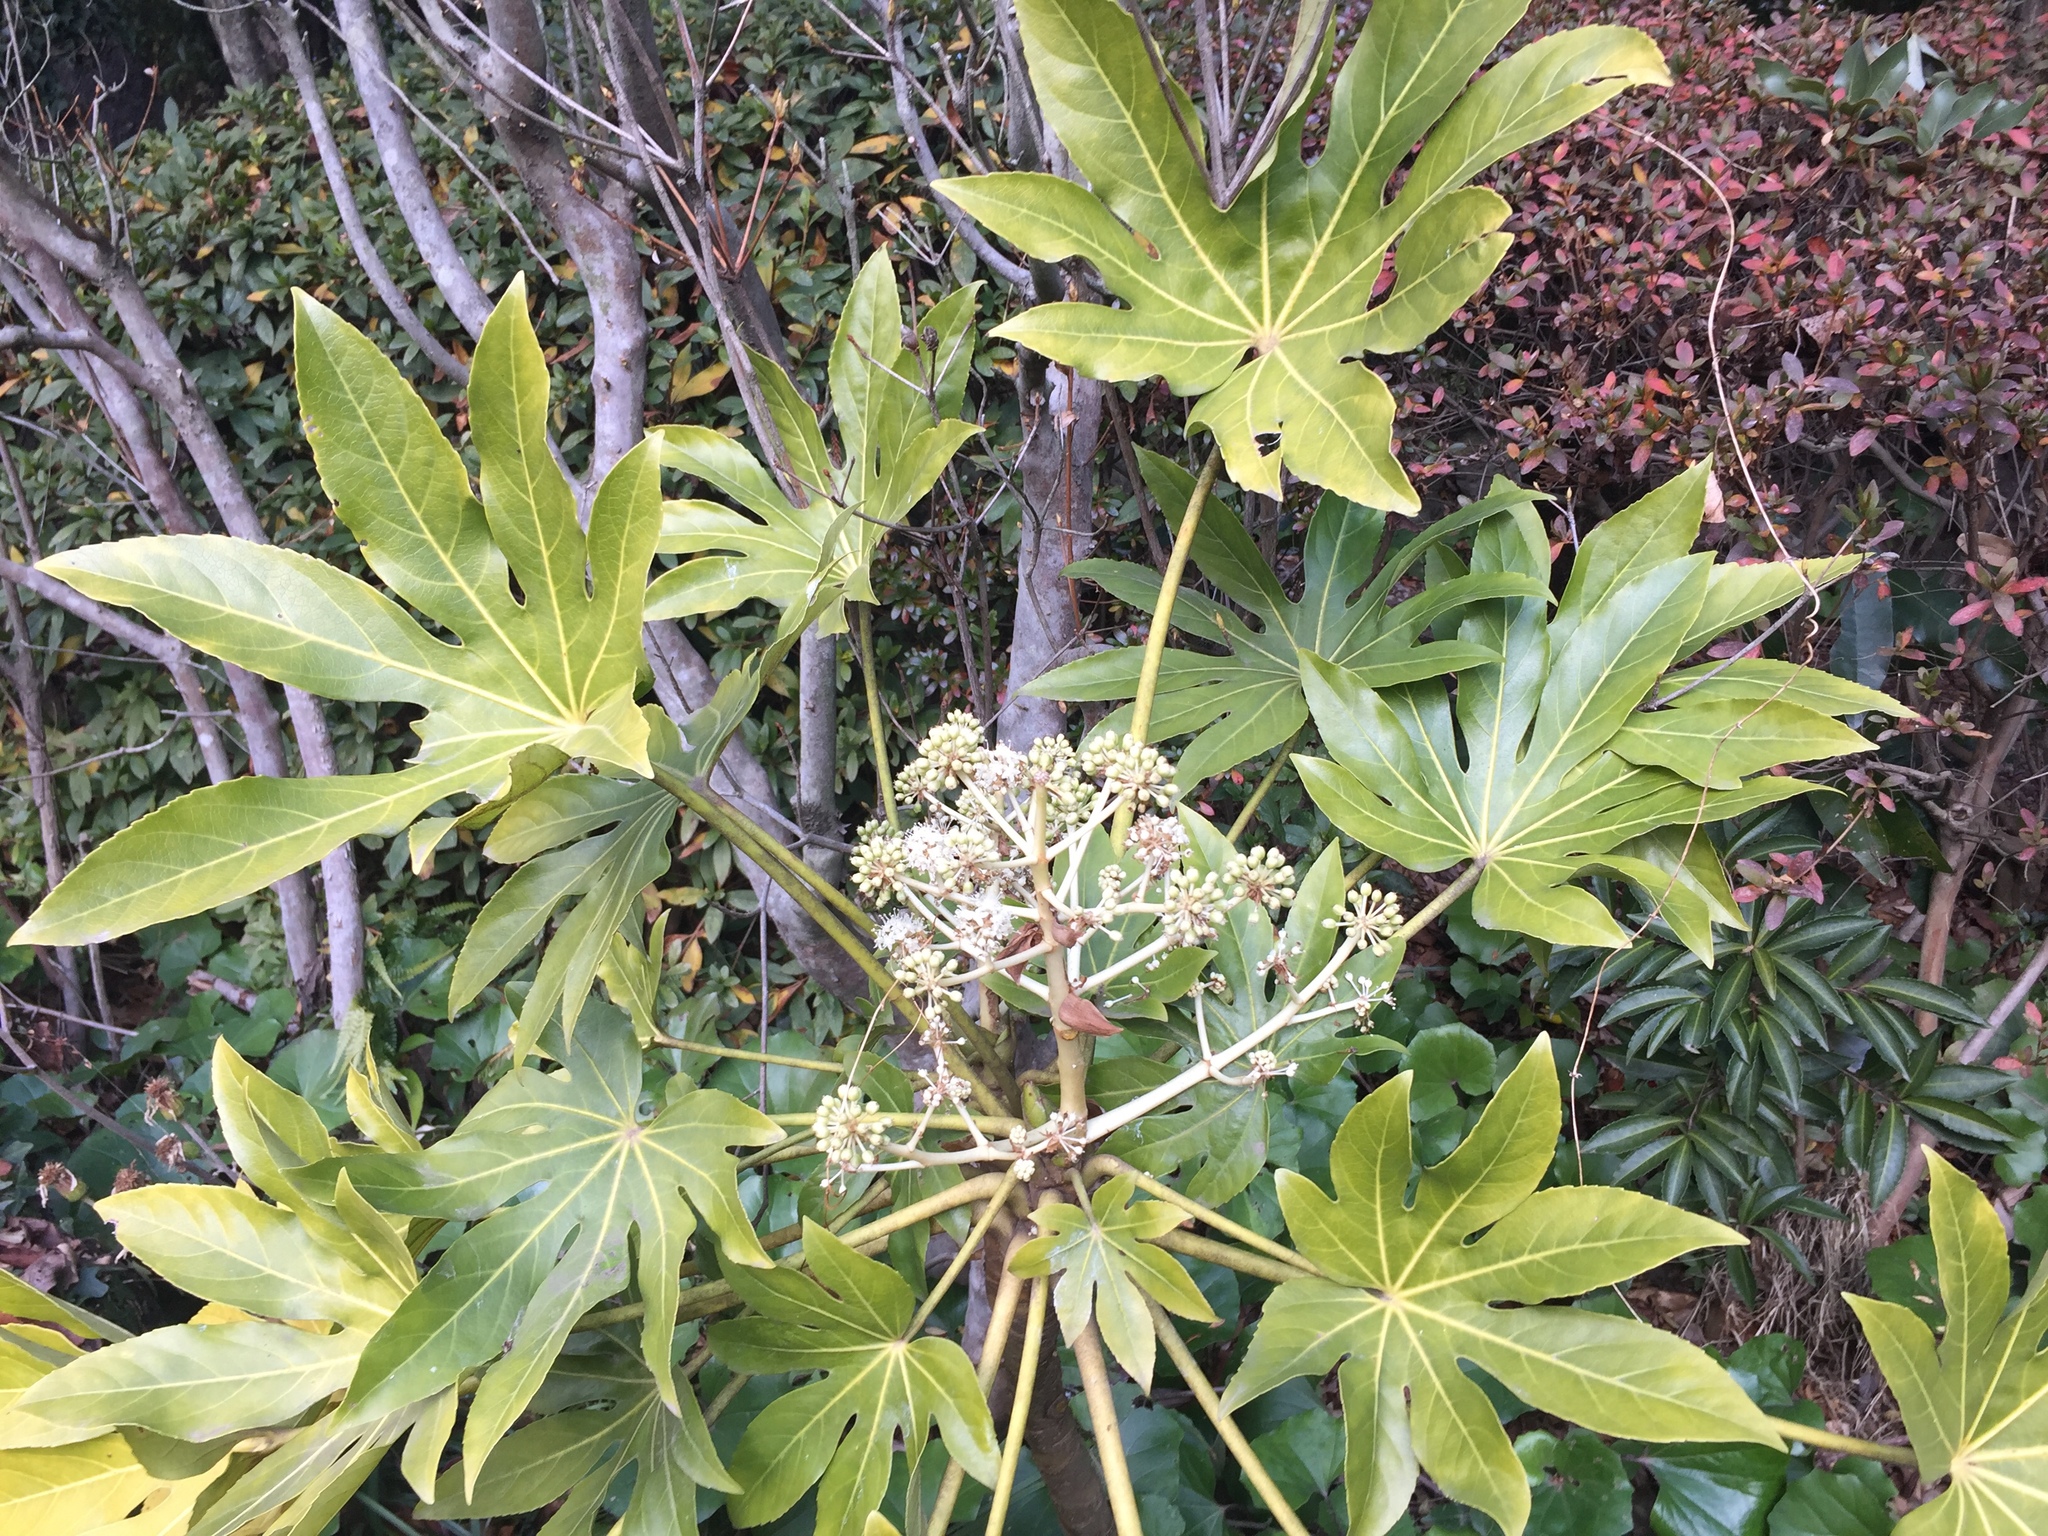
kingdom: Plantae
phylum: Tracheophyta
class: Magnoliopsida
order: Apiales
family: Araliaceae
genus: Fatsia
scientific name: Fatsia japonica
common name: Fatsia
